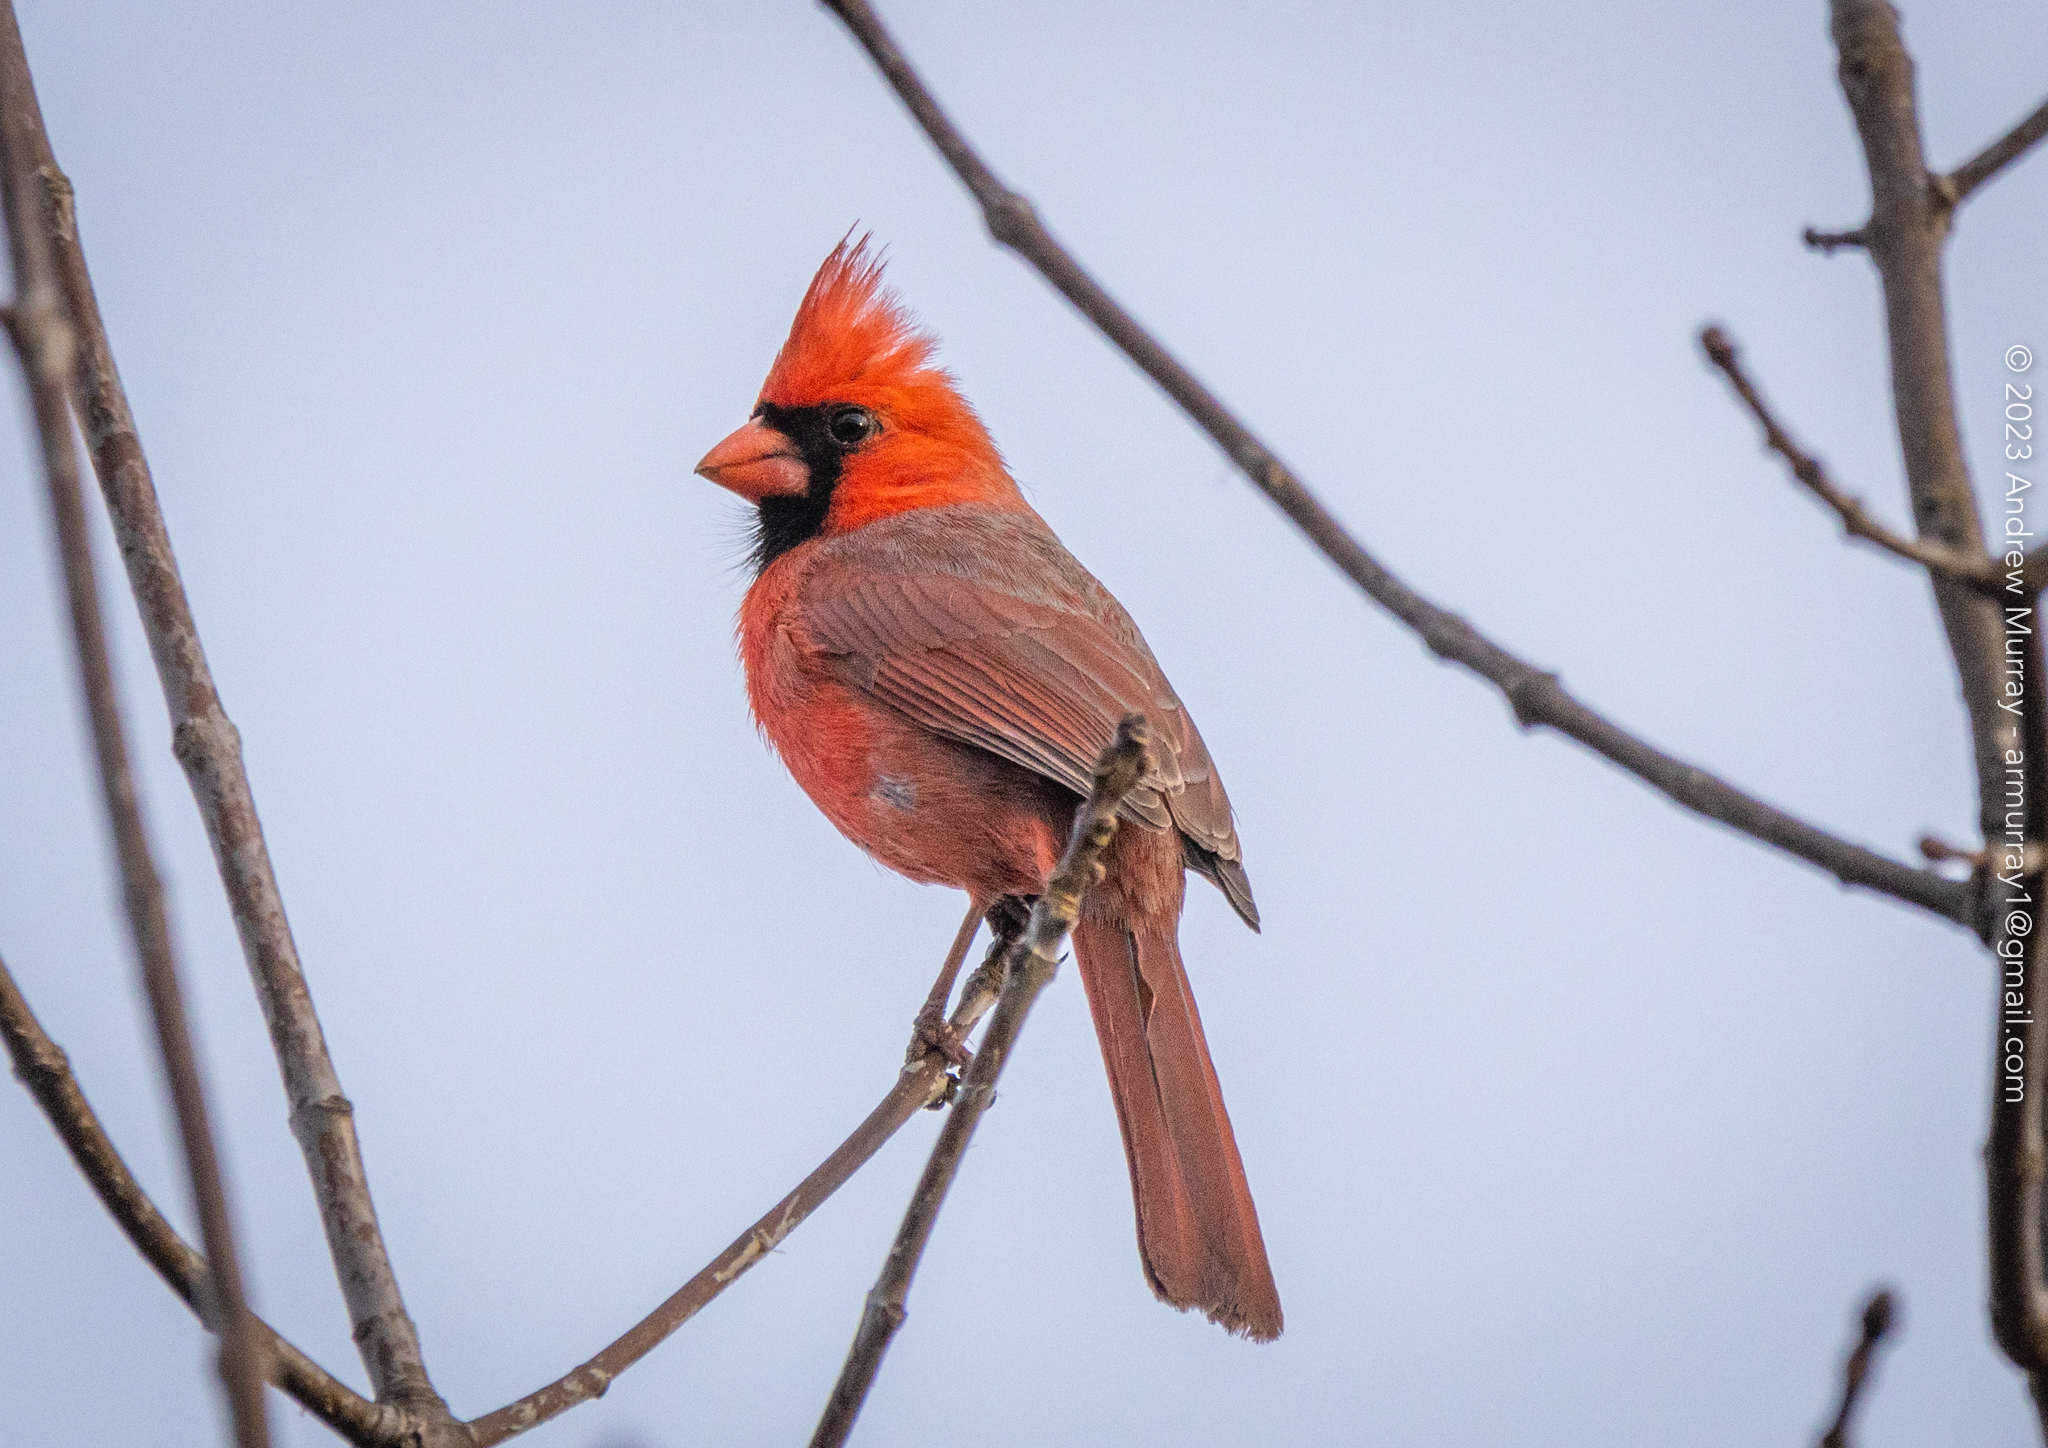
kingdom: Animalia
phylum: Chordata
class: Aves
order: Passeriformes
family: Cardinalidae
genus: Cardinalis
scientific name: Cardinalis cardinalis
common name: Northern cardinal
